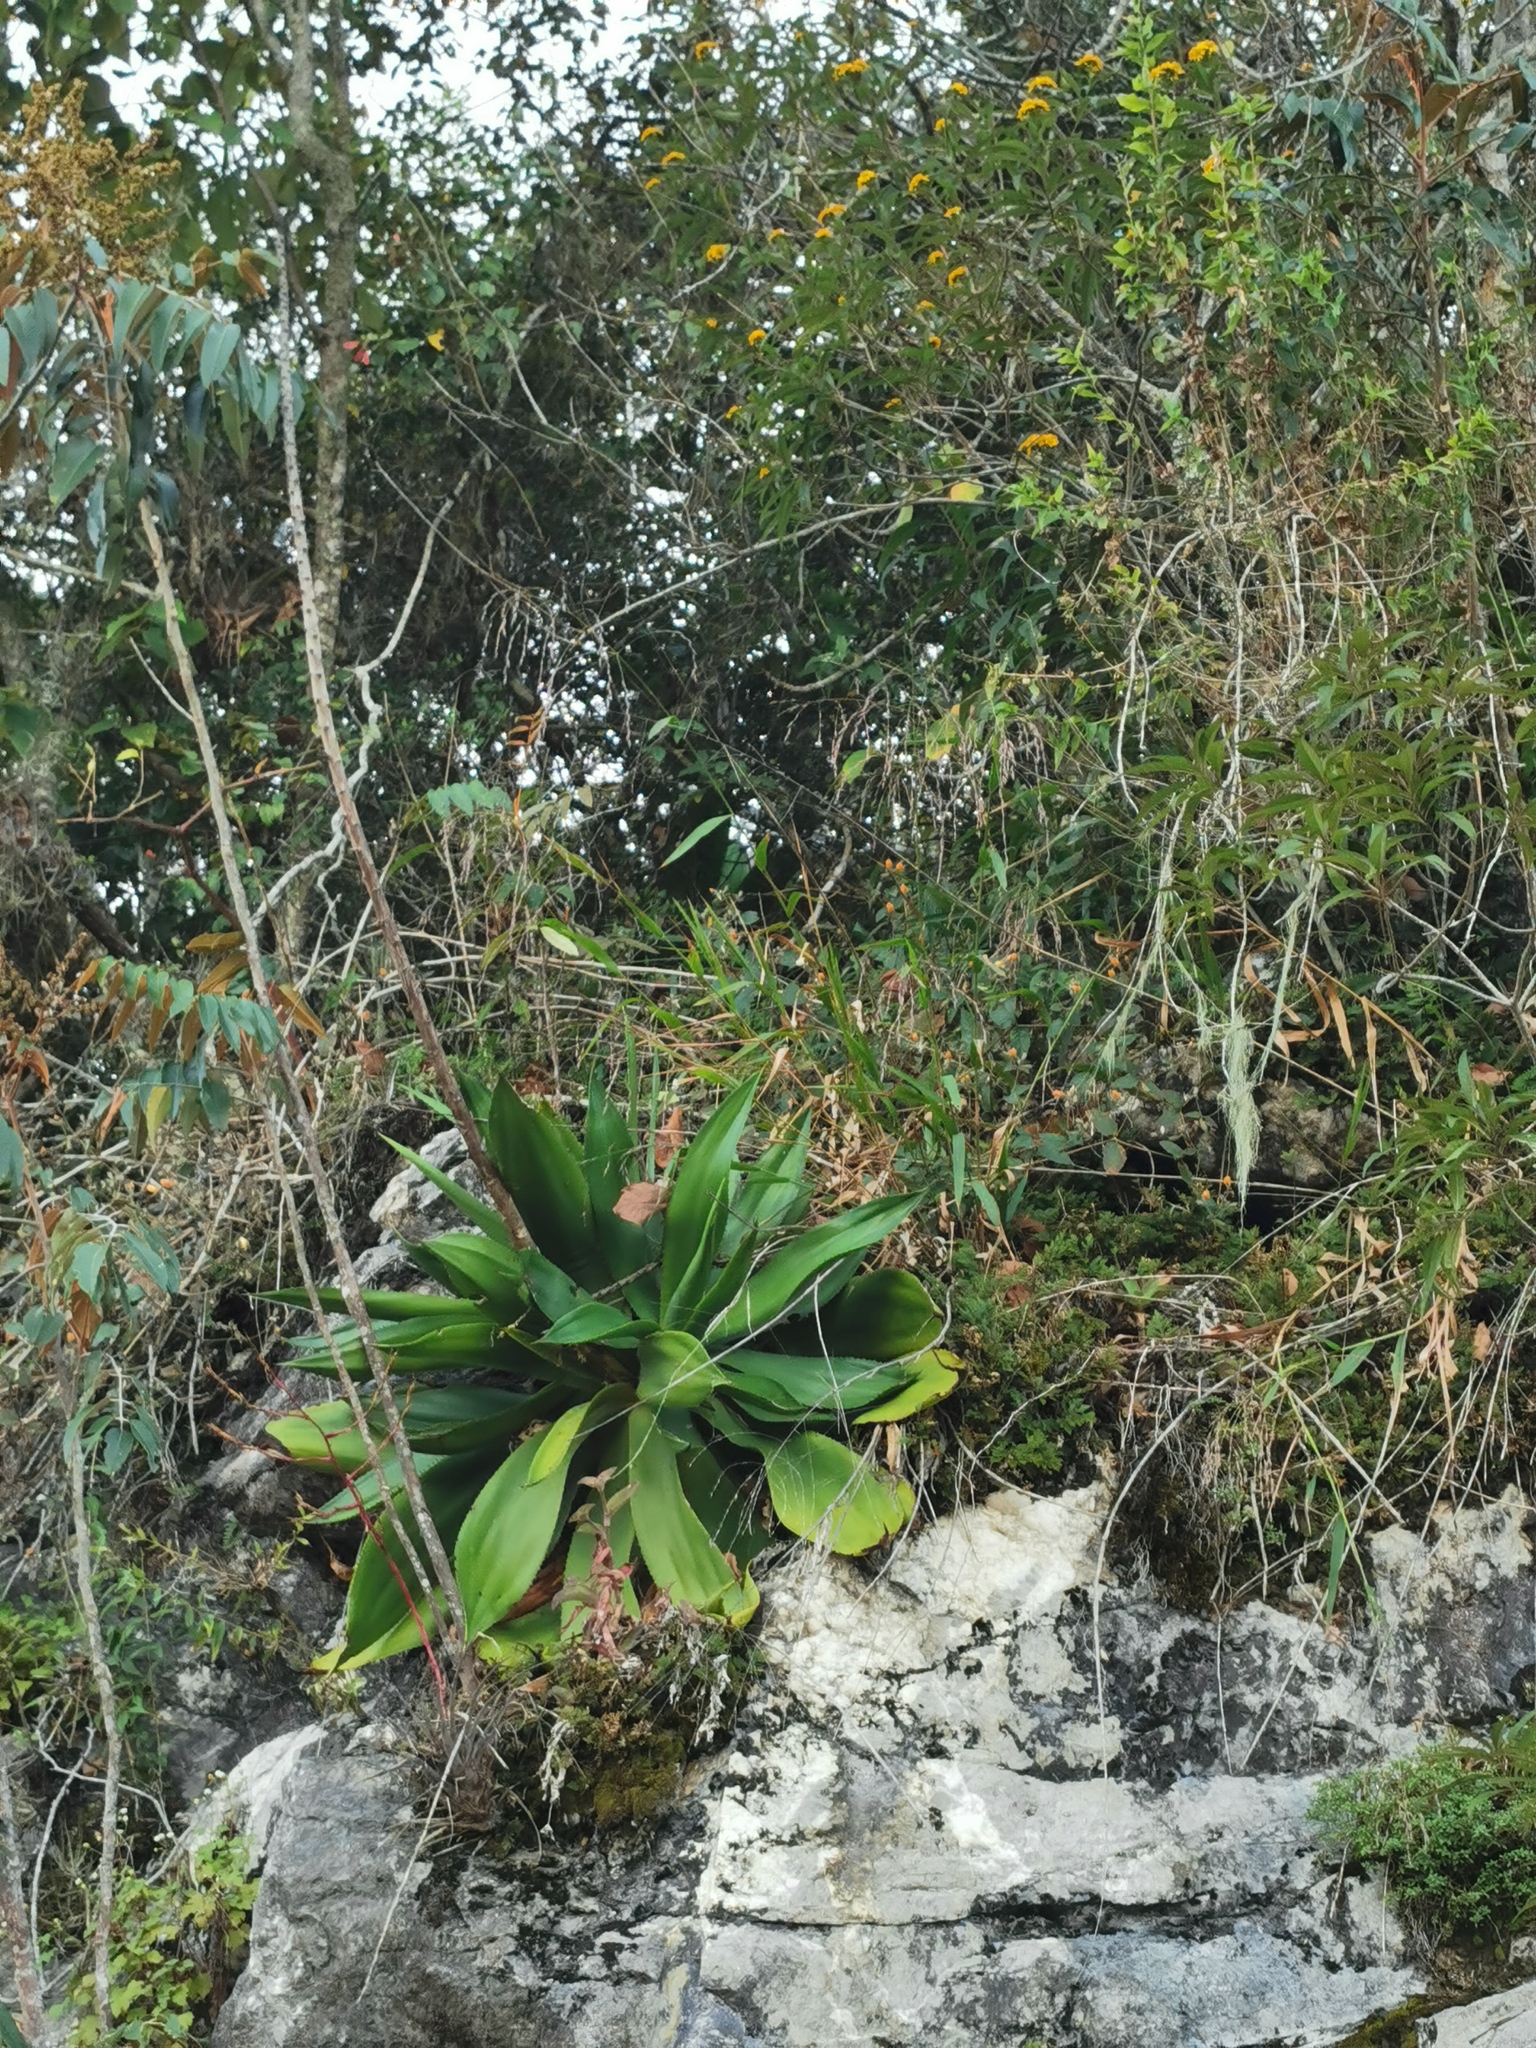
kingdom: Plantae
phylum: Tracheophyta
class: Liliopsida
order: Asparagales
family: Asparagaceae
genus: Agave
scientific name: Agave mitis
